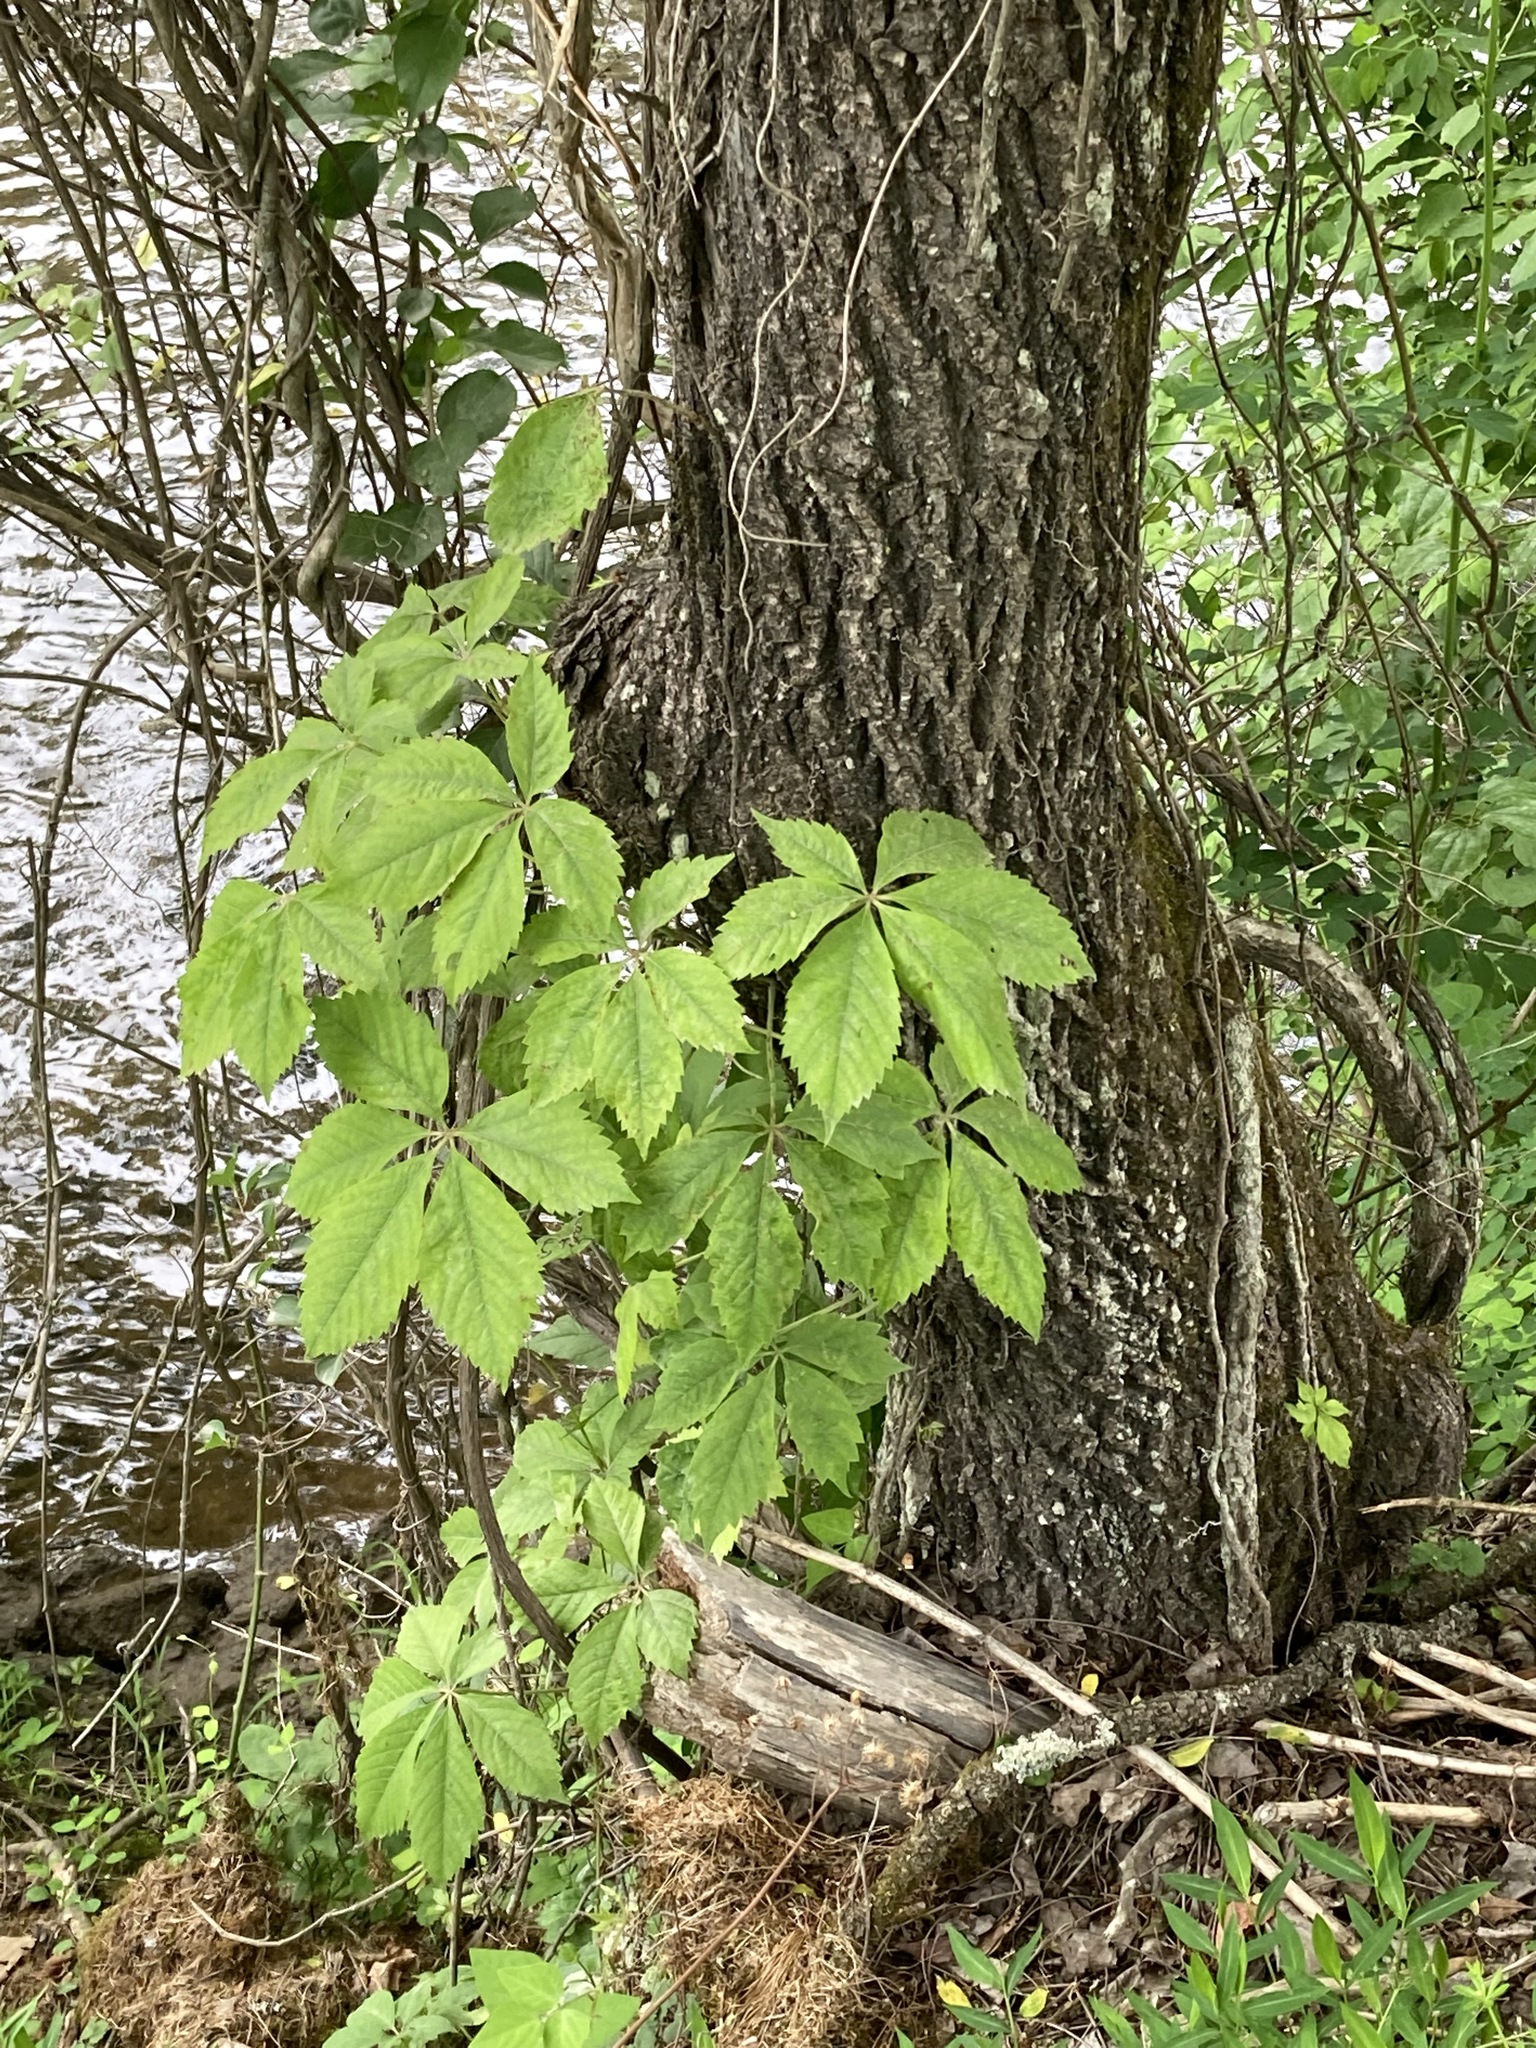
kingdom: Plantae
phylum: Tracheophyta
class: Magnoliopsida
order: Vitales
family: Vitaceae
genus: Parthenocissus
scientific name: Parthenocissus quinquefolia
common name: Virginia-creeper
